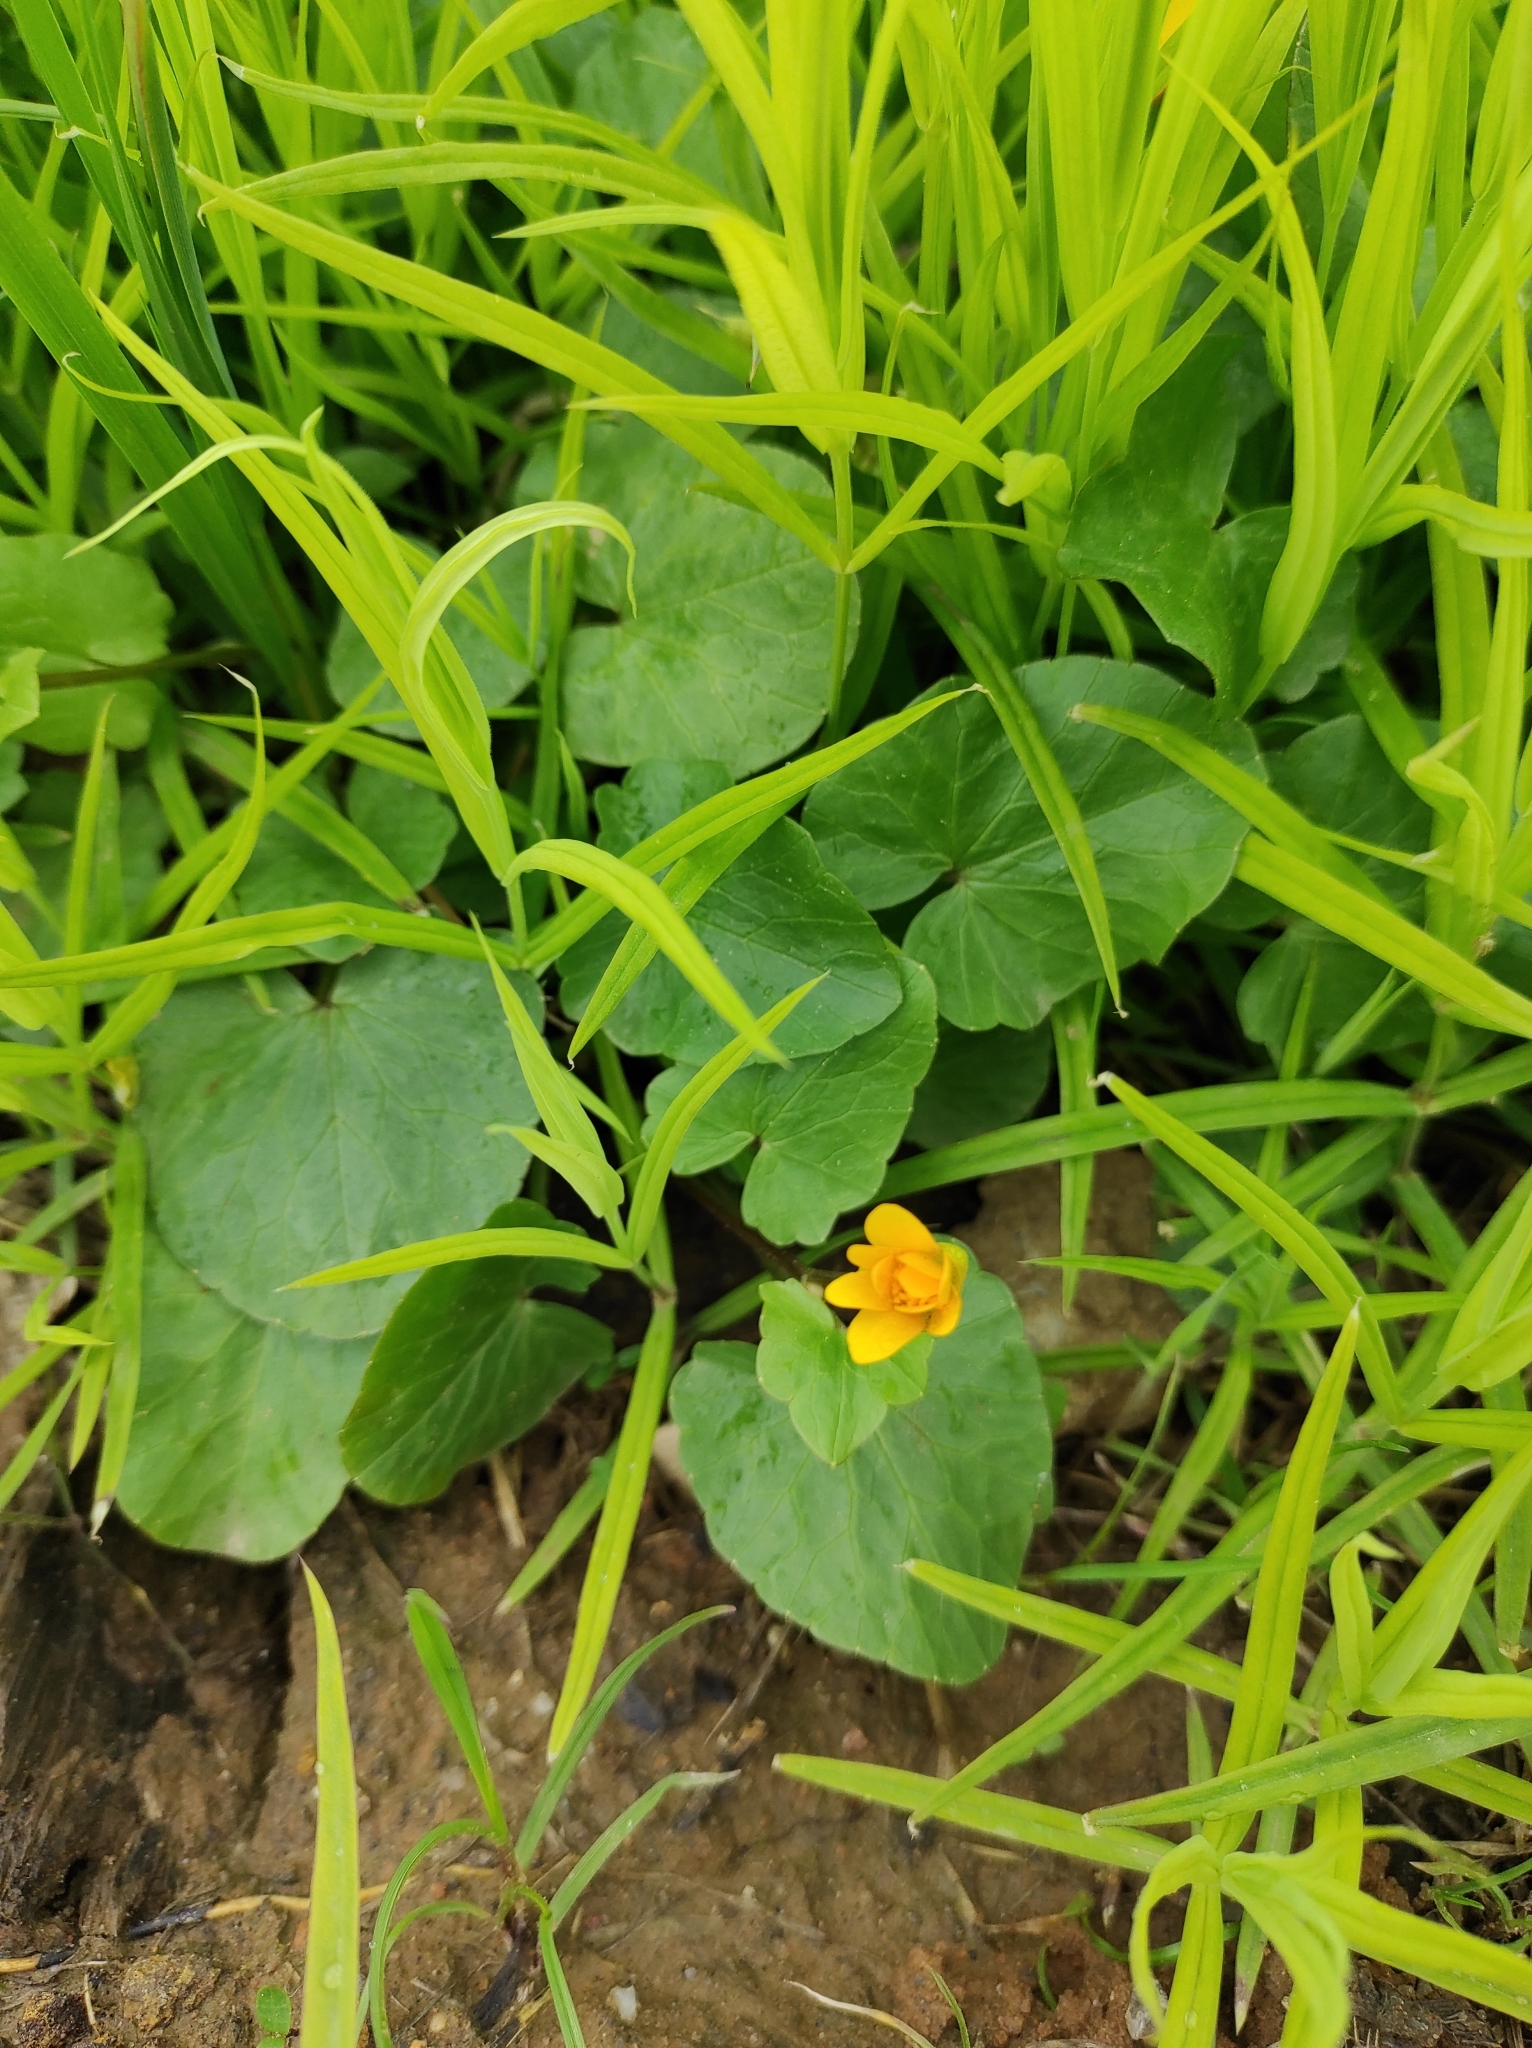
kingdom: Plantae
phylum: Tracheophyta
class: Magnoliopsida
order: Ranunculales
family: Ranunculaceae
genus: Ficaria
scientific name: Ficaria verna
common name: Lesser celandine
